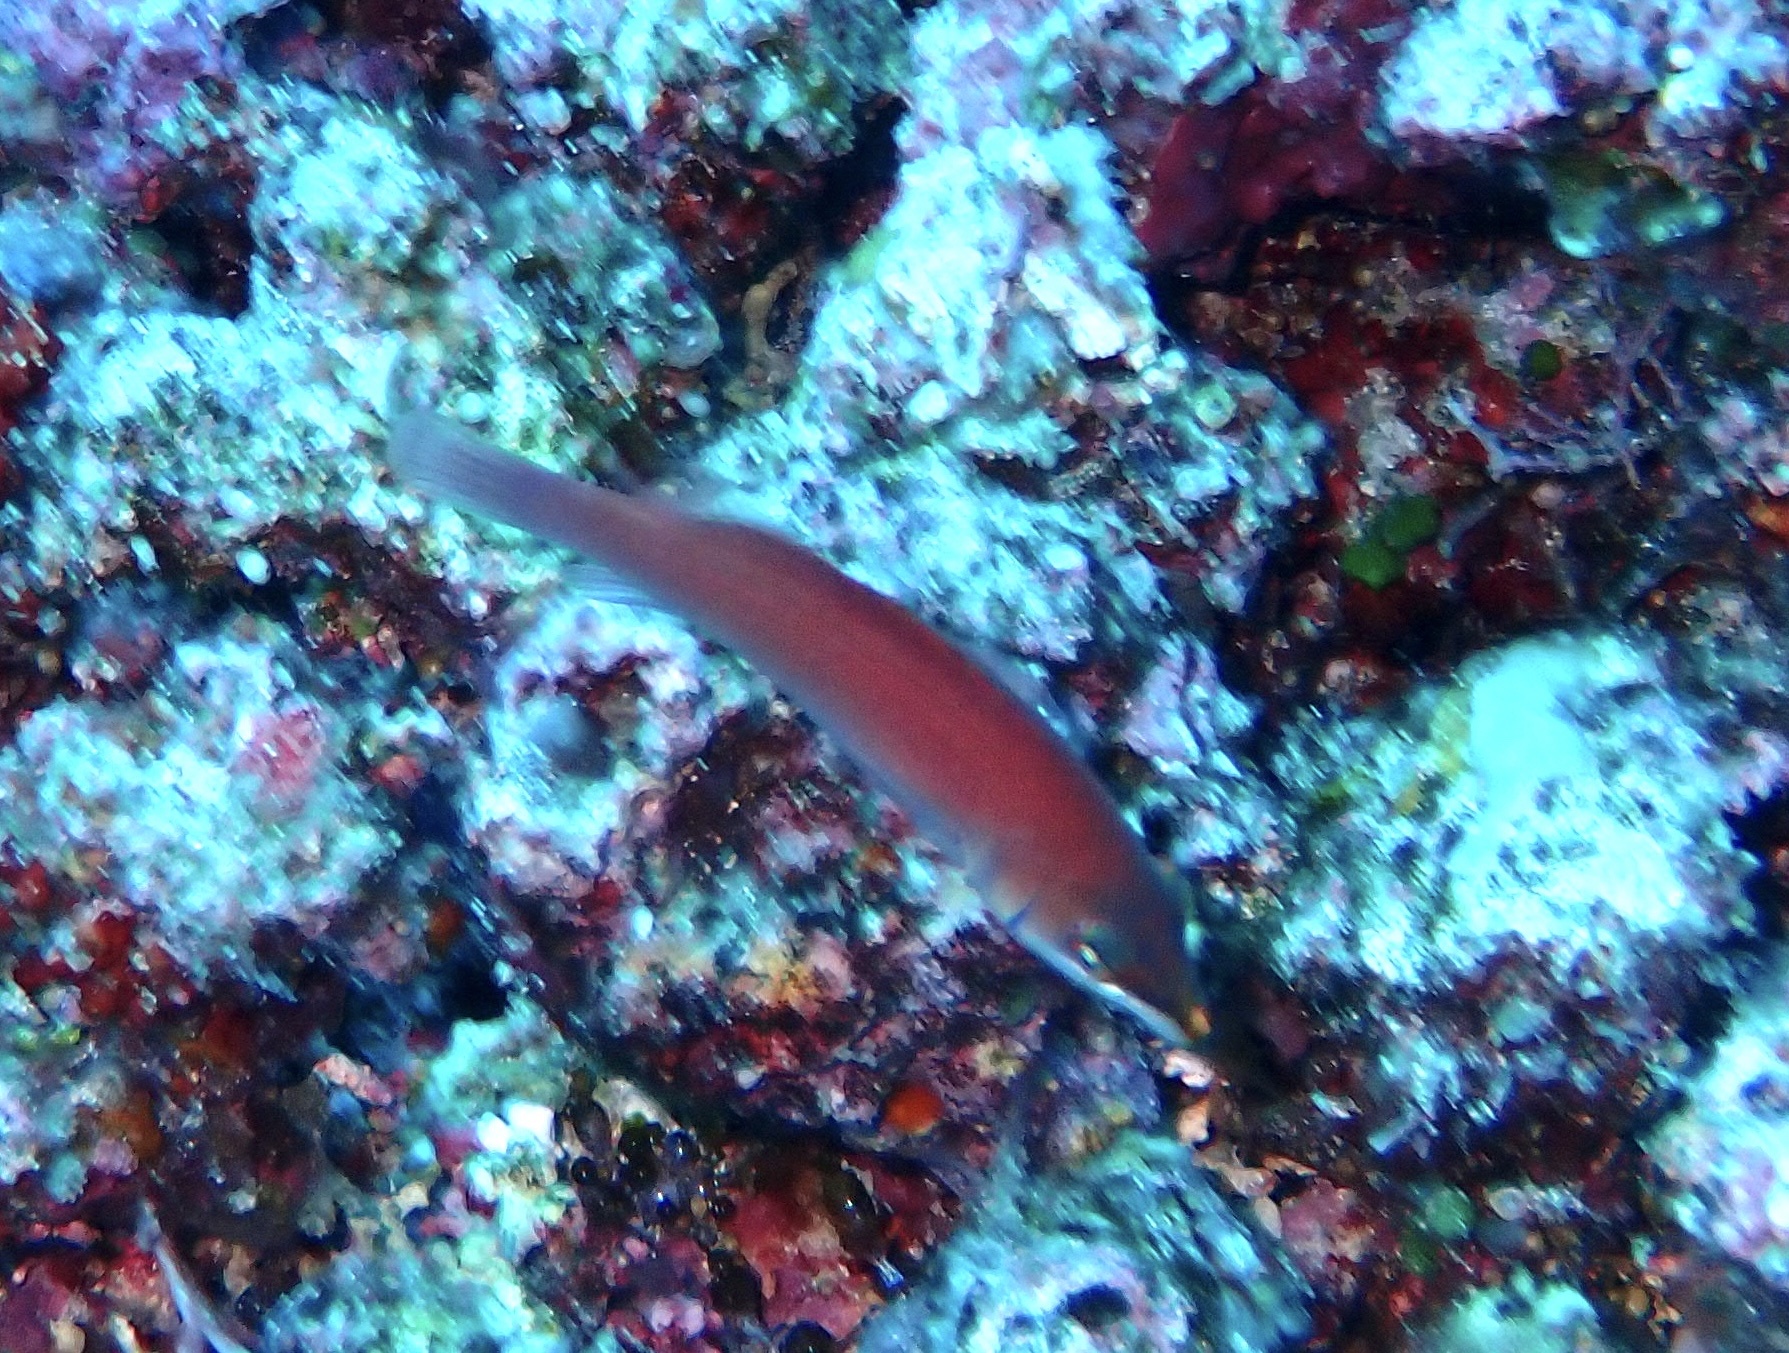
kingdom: Animalia
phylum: Chordata
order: Perciformes
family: Labridae
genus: Pseudocheilinus
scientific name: Pseudocheilinus evanidus
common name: Disappearing wrasse
